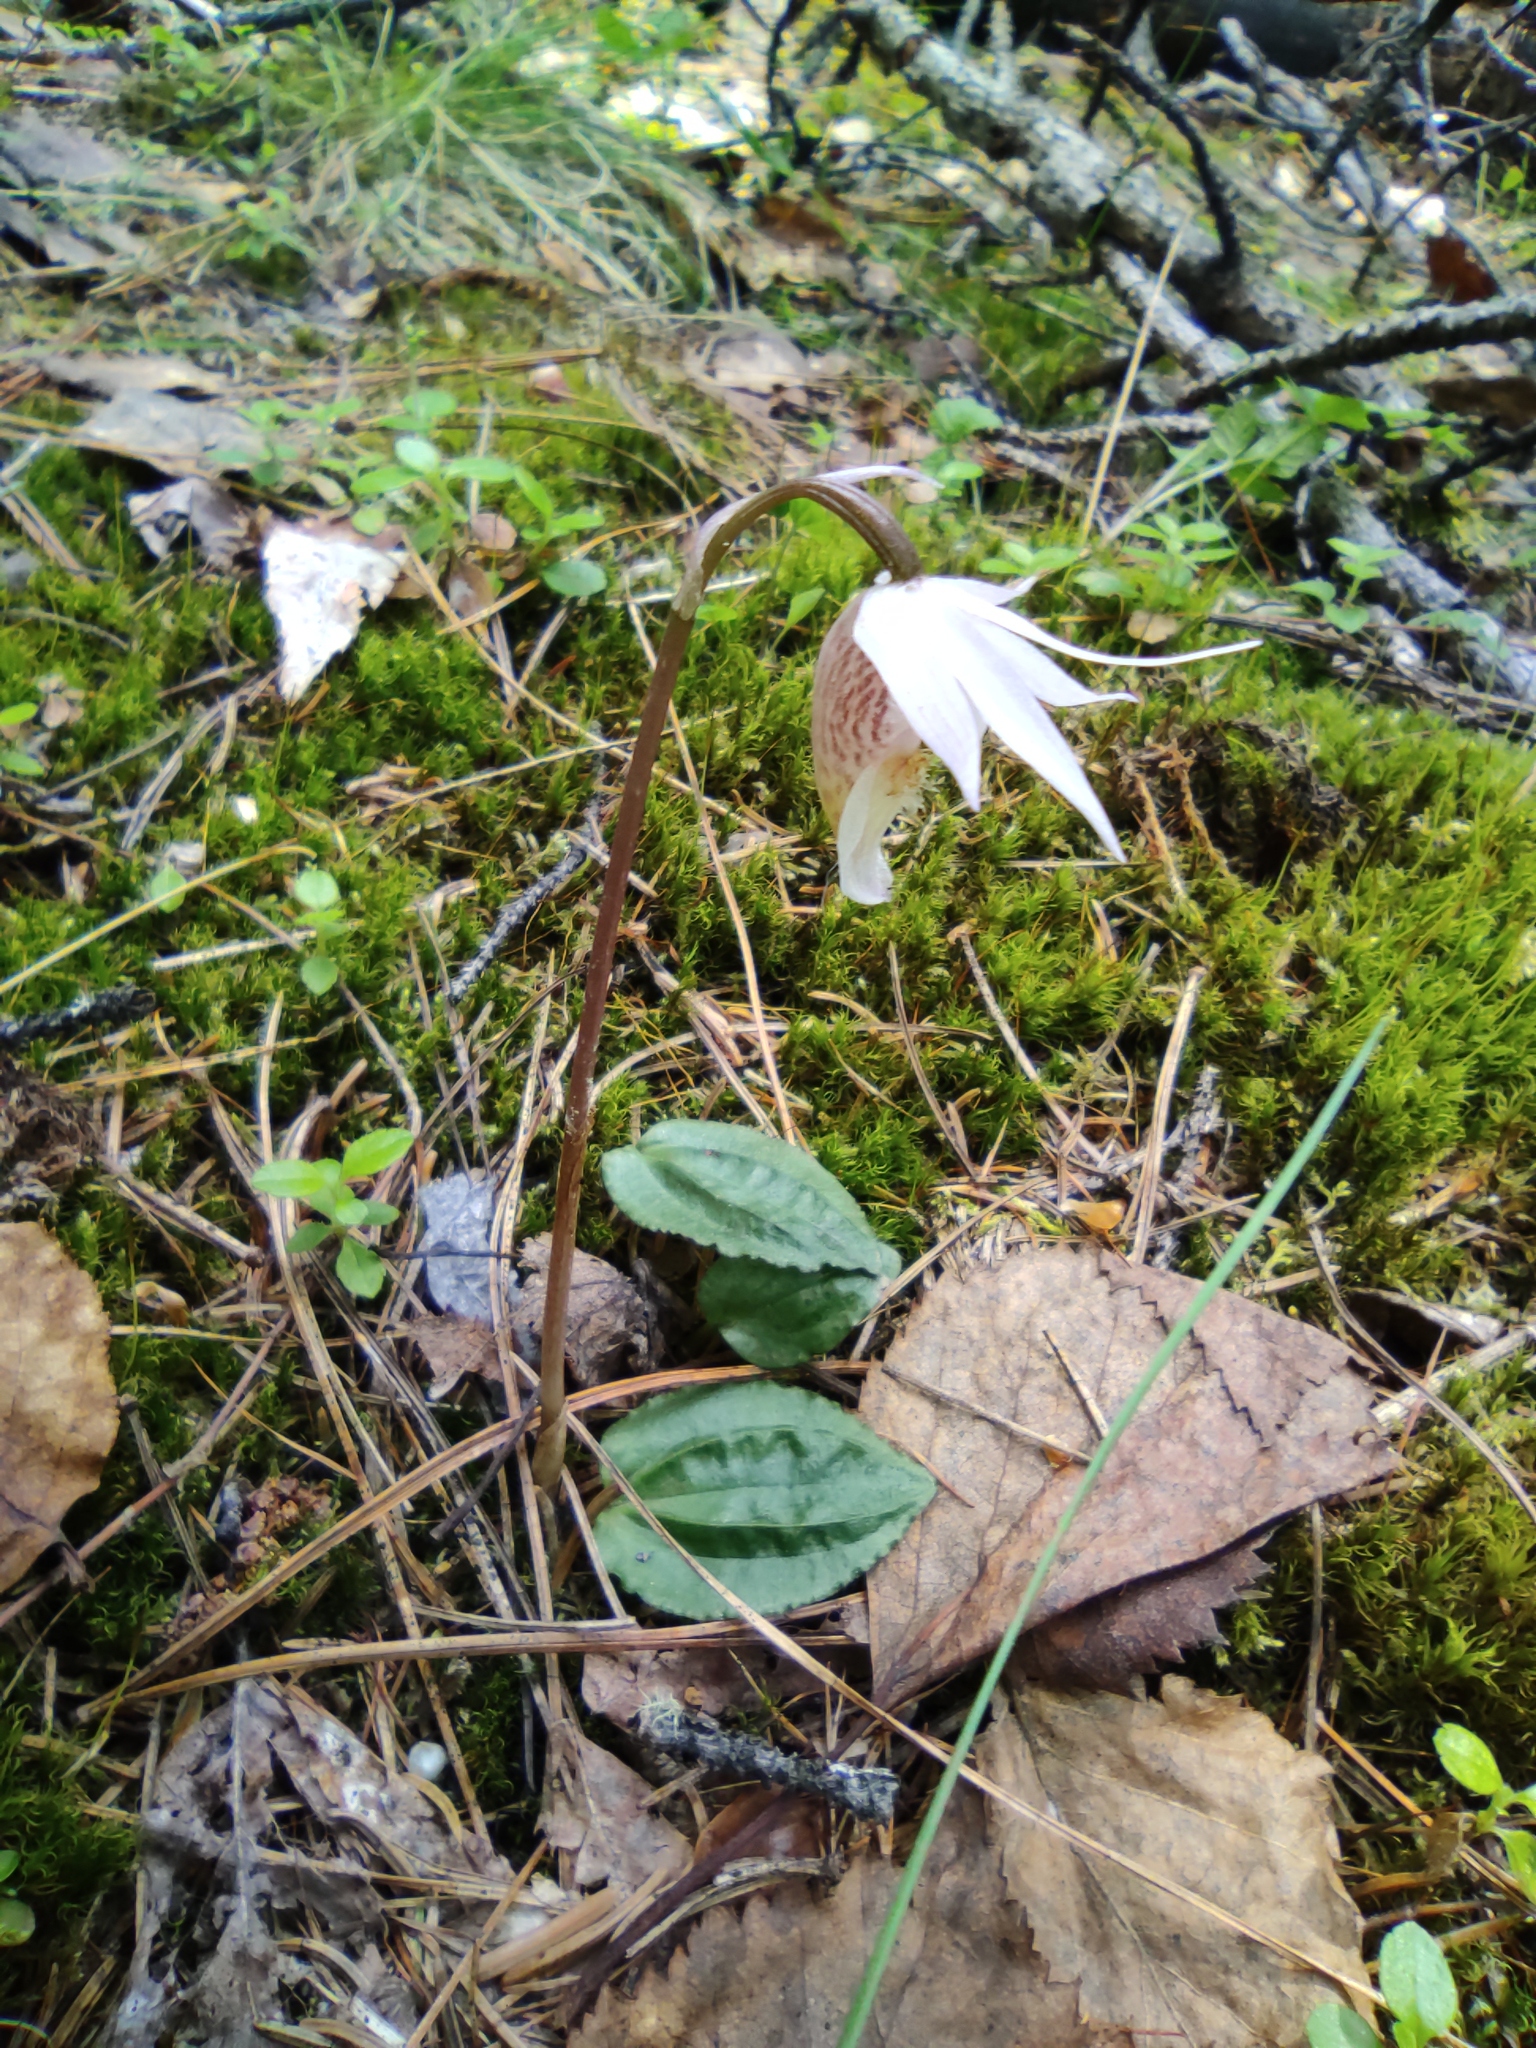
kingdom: Plantae
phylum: Tracheophyta
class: Liliopsida
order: Asparagales
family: Orchidaceae
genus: Calypso
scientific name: Calypso bulbosa
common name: Calypso
